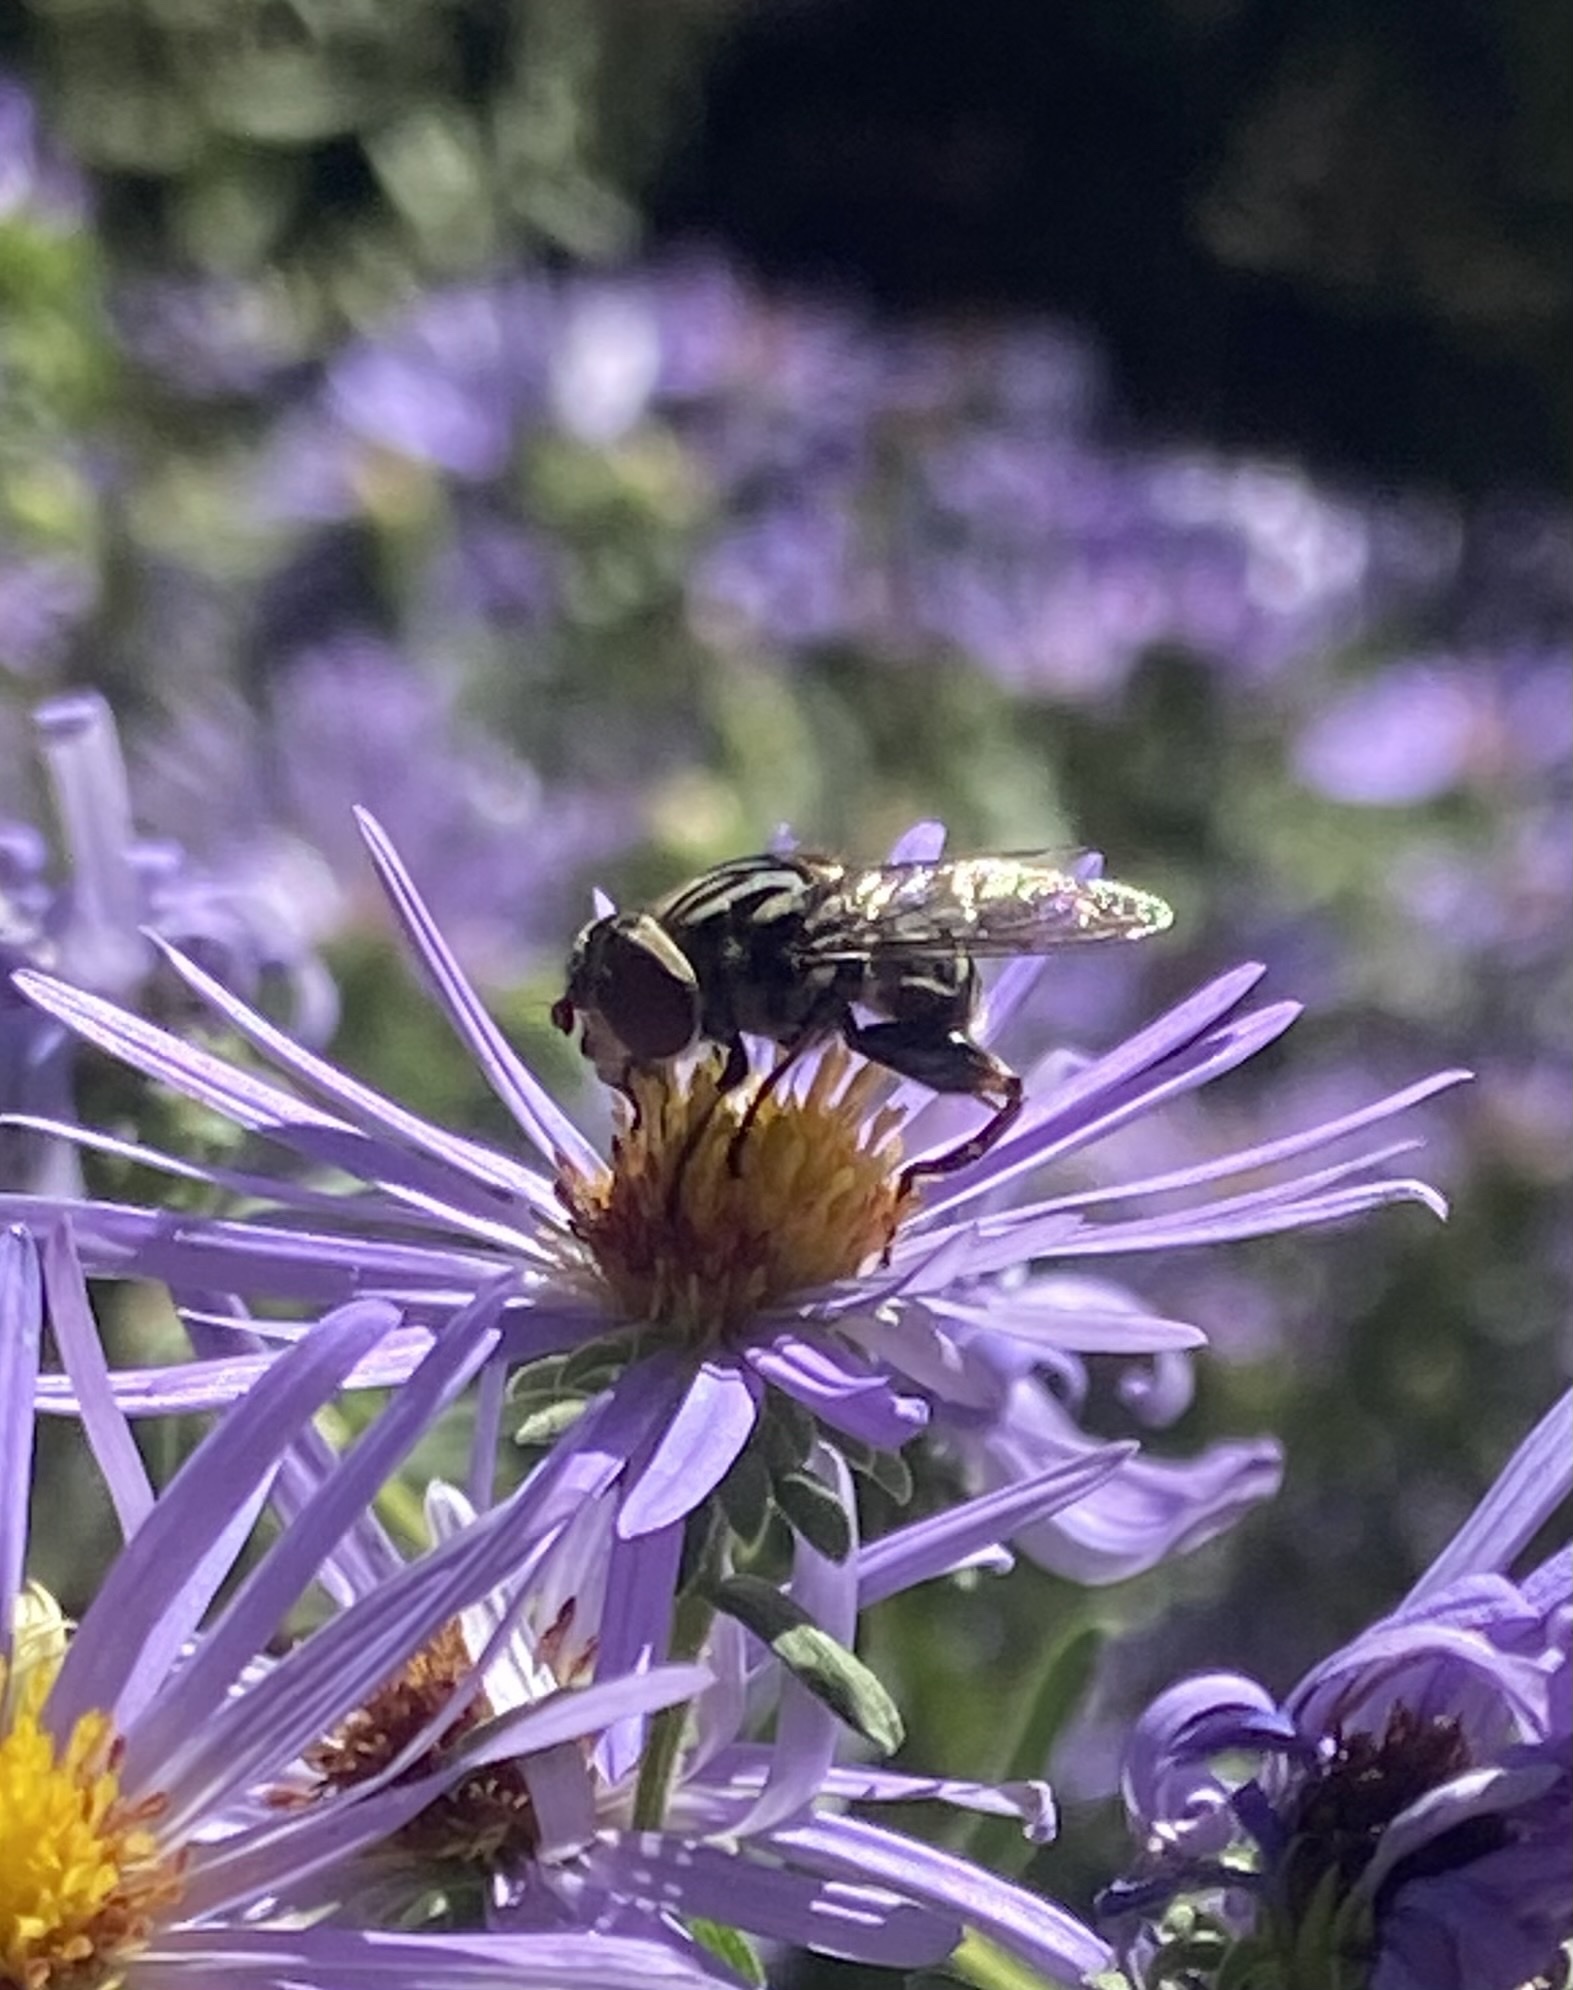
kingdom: Animalia
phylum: Arthropoda
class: Insecta
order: Diptera
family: Syrphidae
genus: Palpada
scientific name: Palpada furcata
